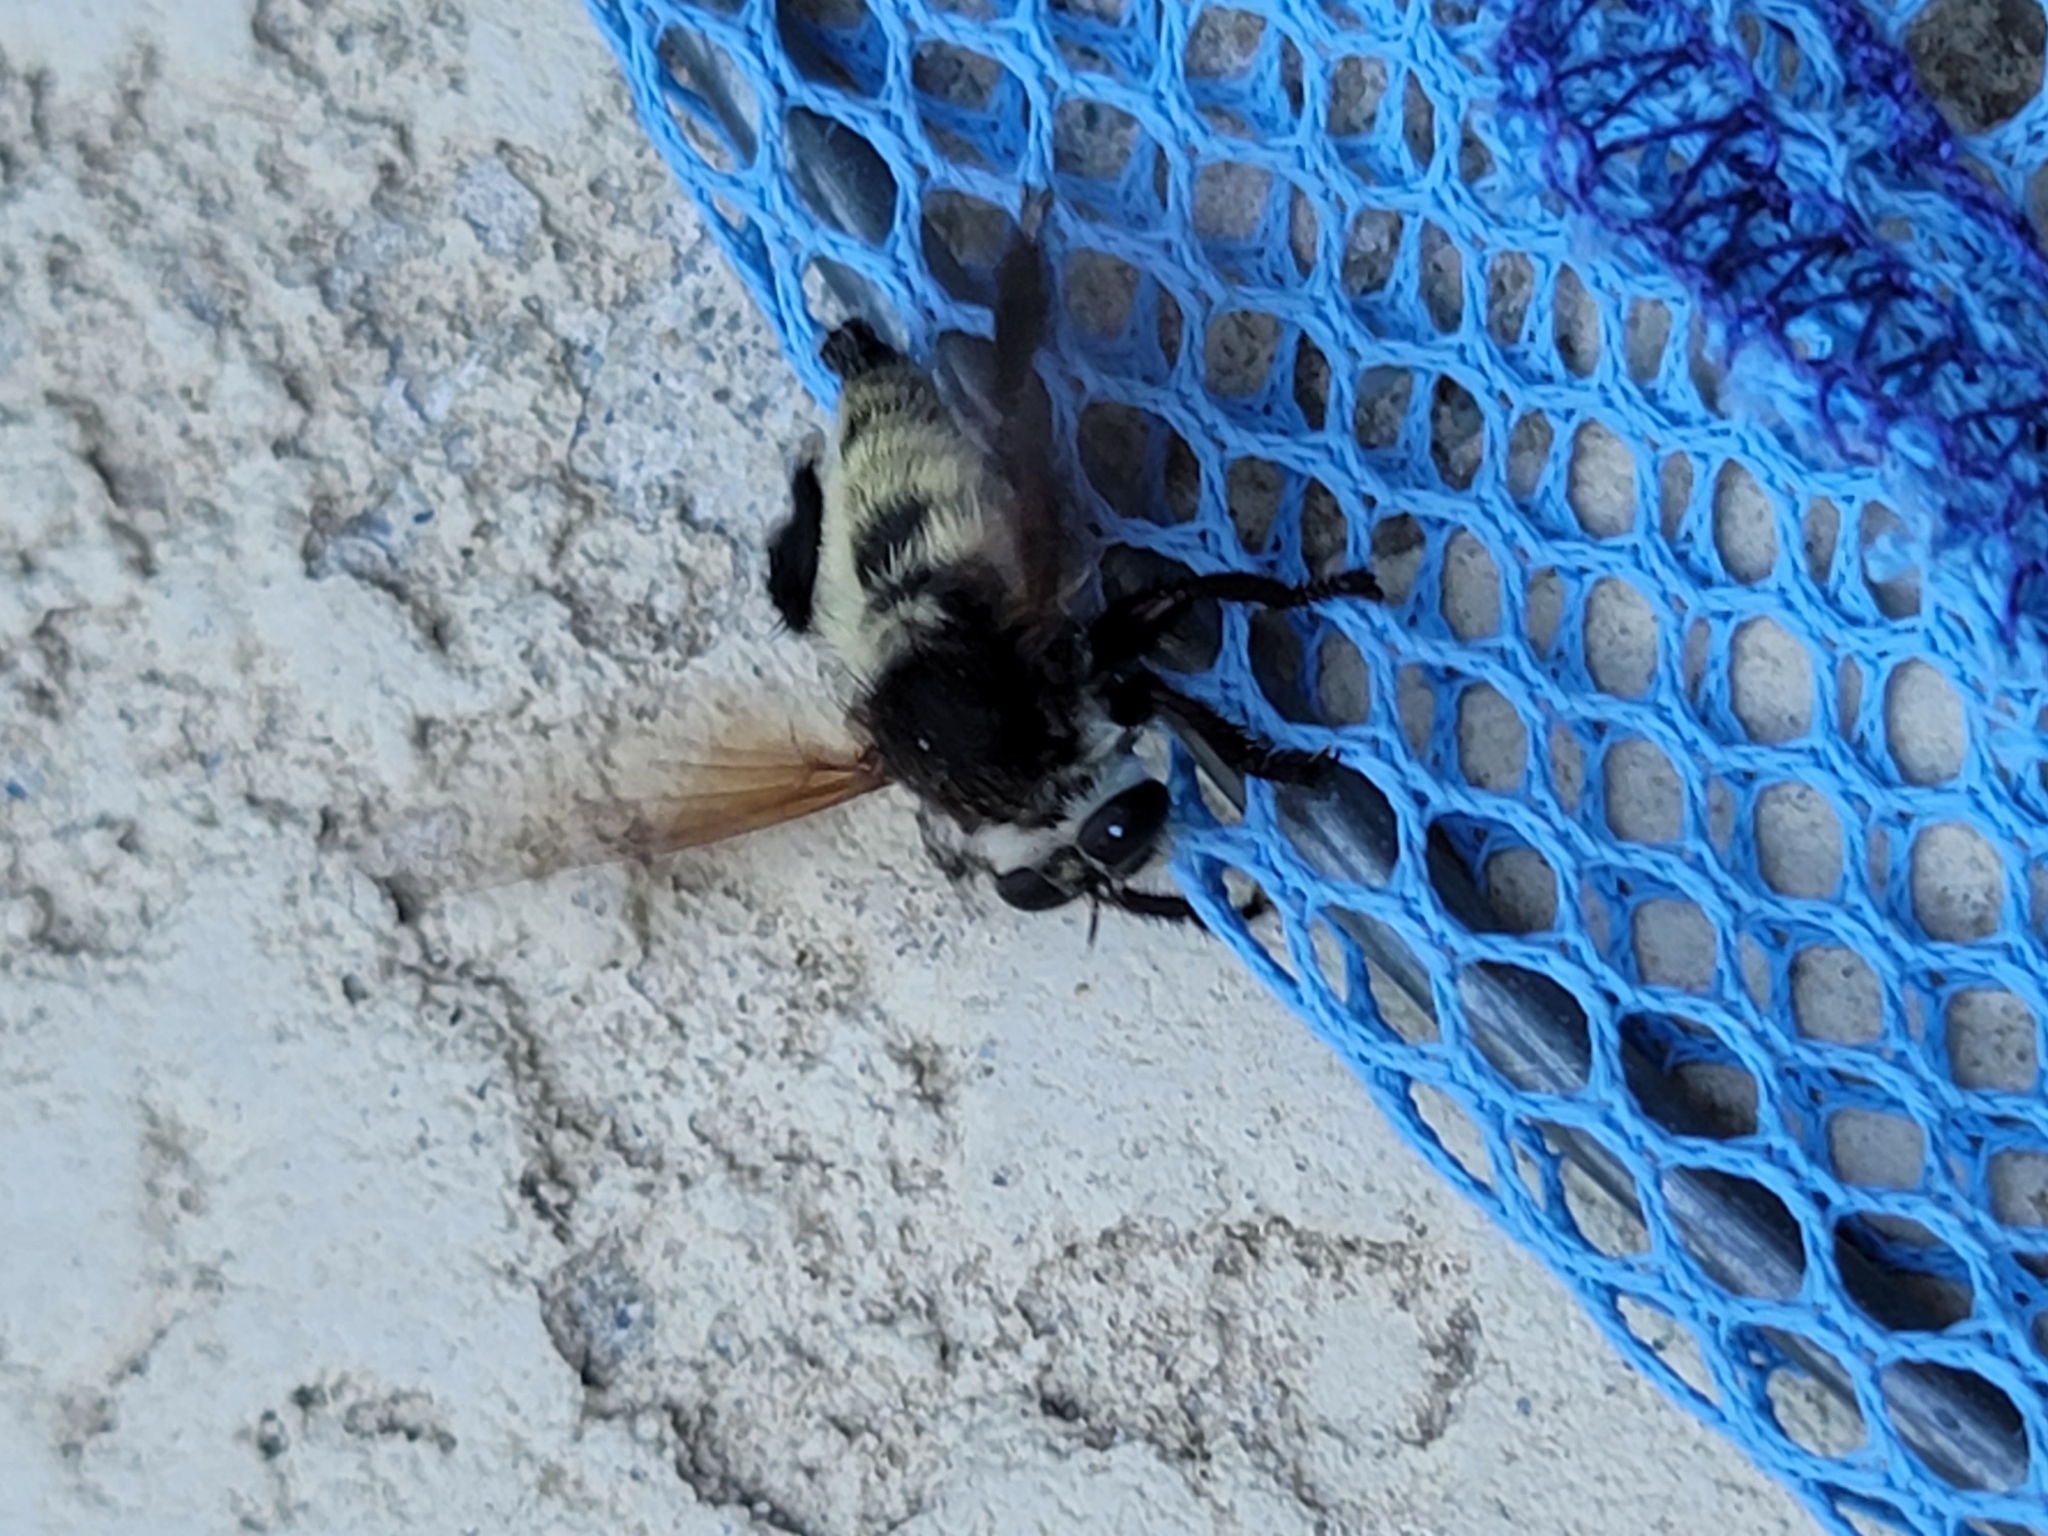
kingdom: Animalia
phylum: Arthropoda
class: Insecta
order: Diptera
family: Asilidae
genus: Mallophora
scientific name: Mallophora fautrix
